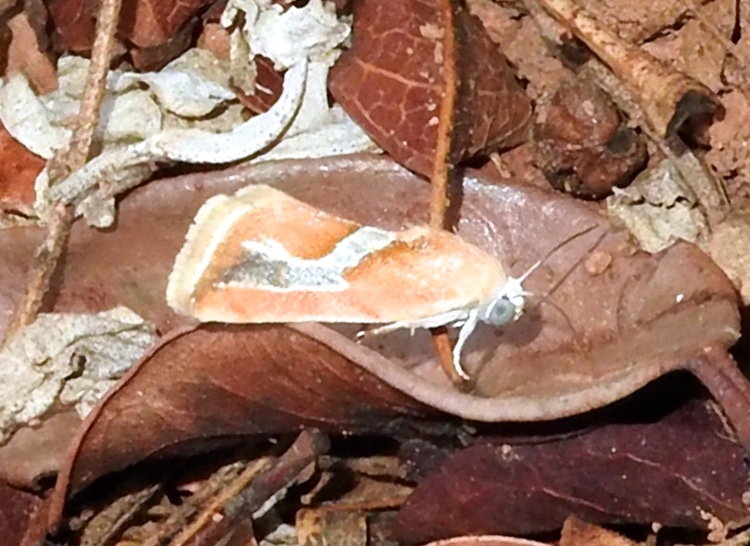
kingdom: Animalia
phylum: Arthropoda
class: Insecta
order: Lepidoptera
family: Noctuidae
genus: Ponometia
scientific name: Ponometia venustula
